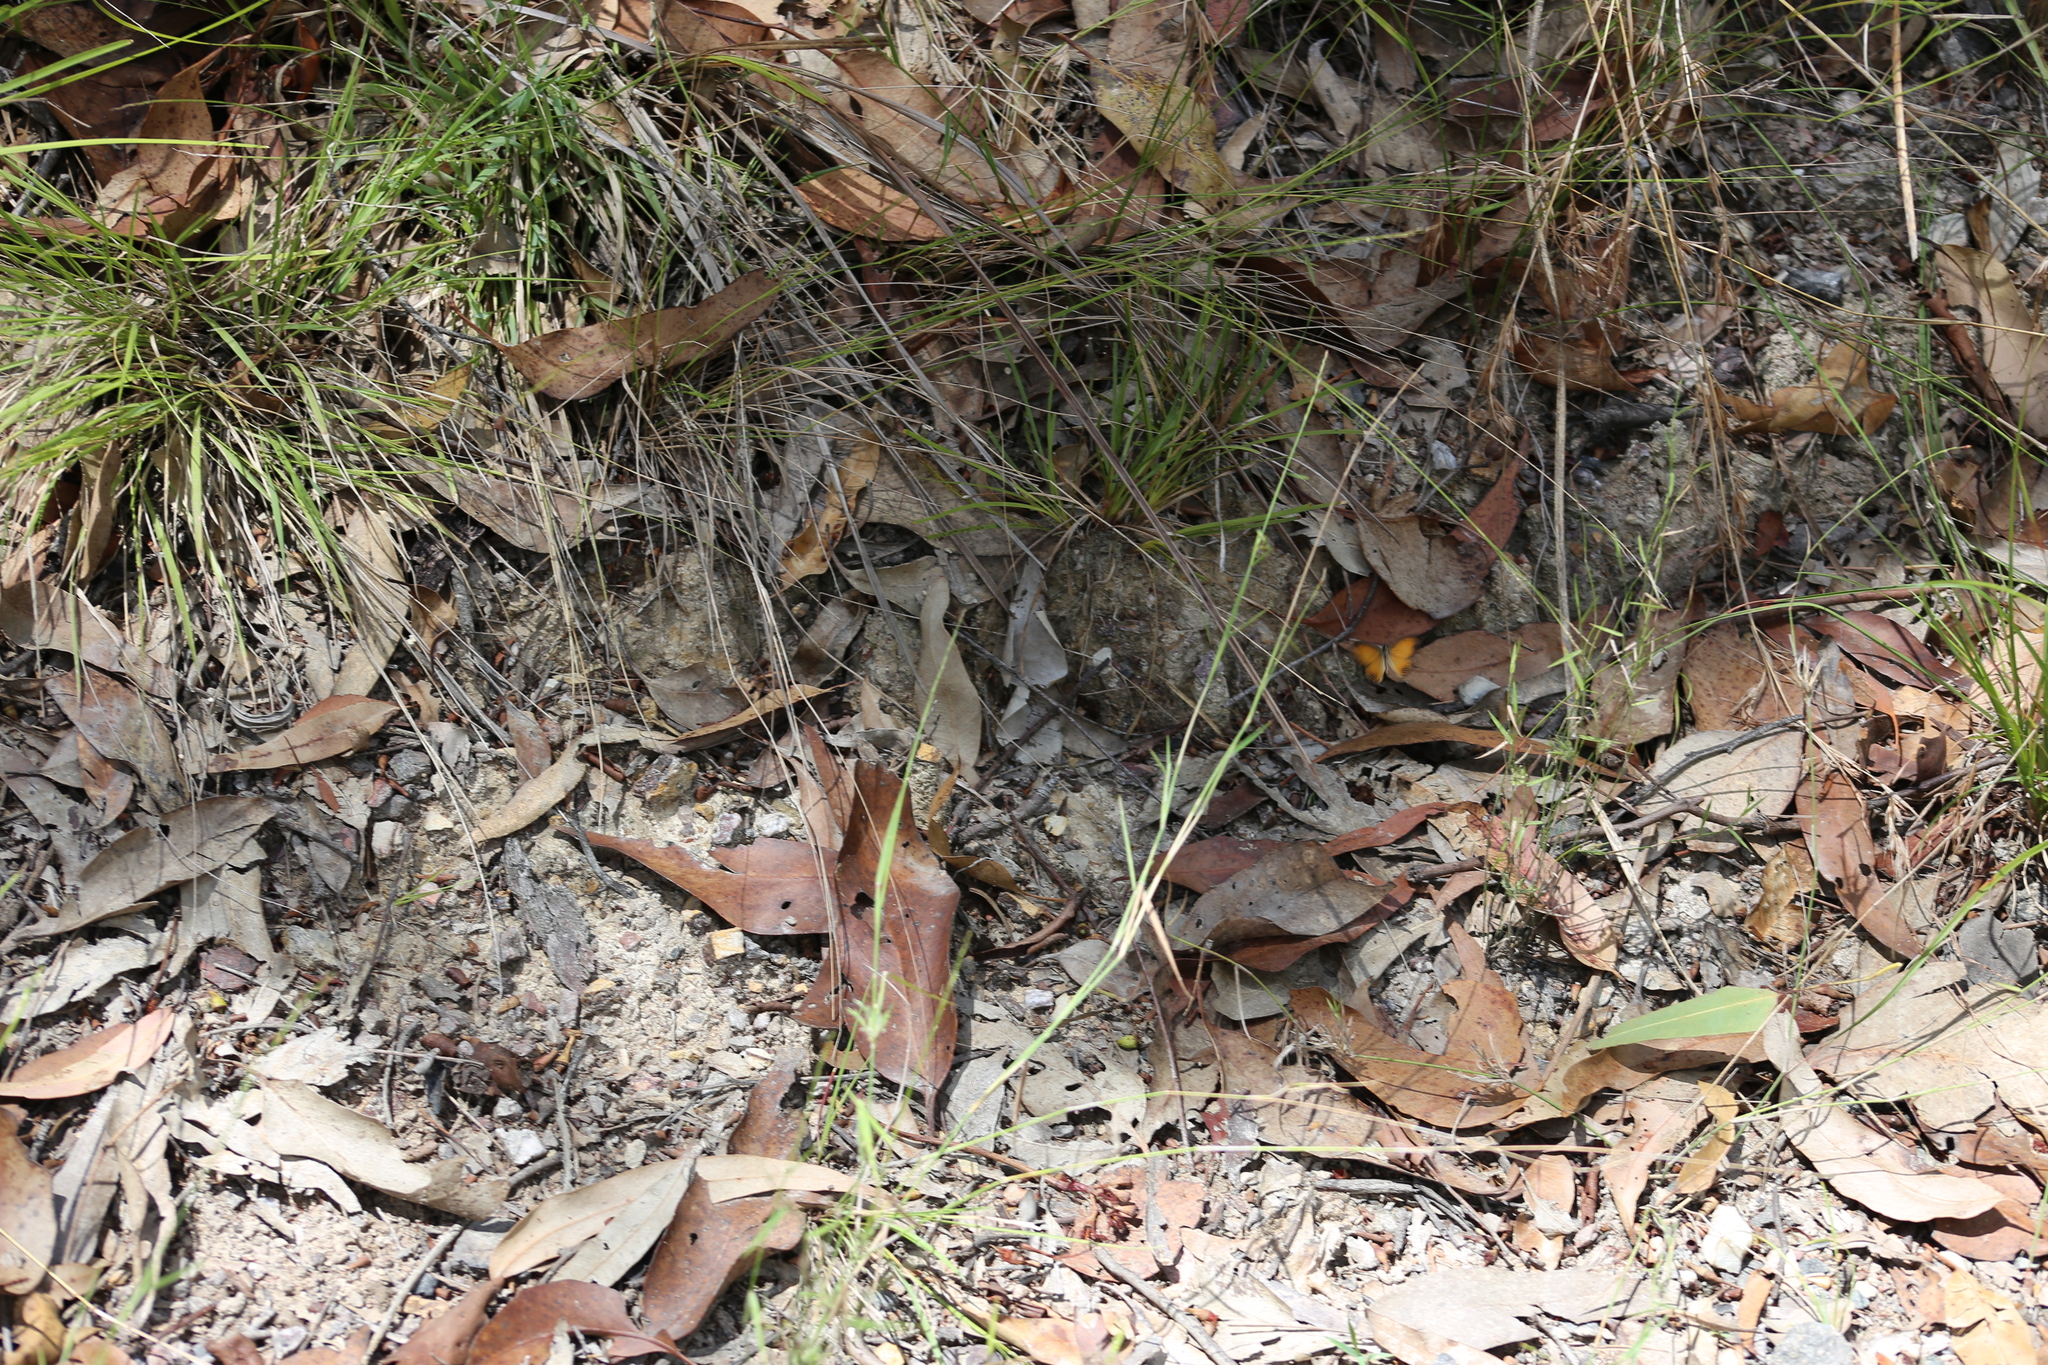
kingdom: Animalia
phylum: Arthropoda
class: Insecta
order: Lepidoptera
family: Nymphalidae
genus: Hypocysta
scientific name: Hypocysta adiante
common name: Orange ringlet
